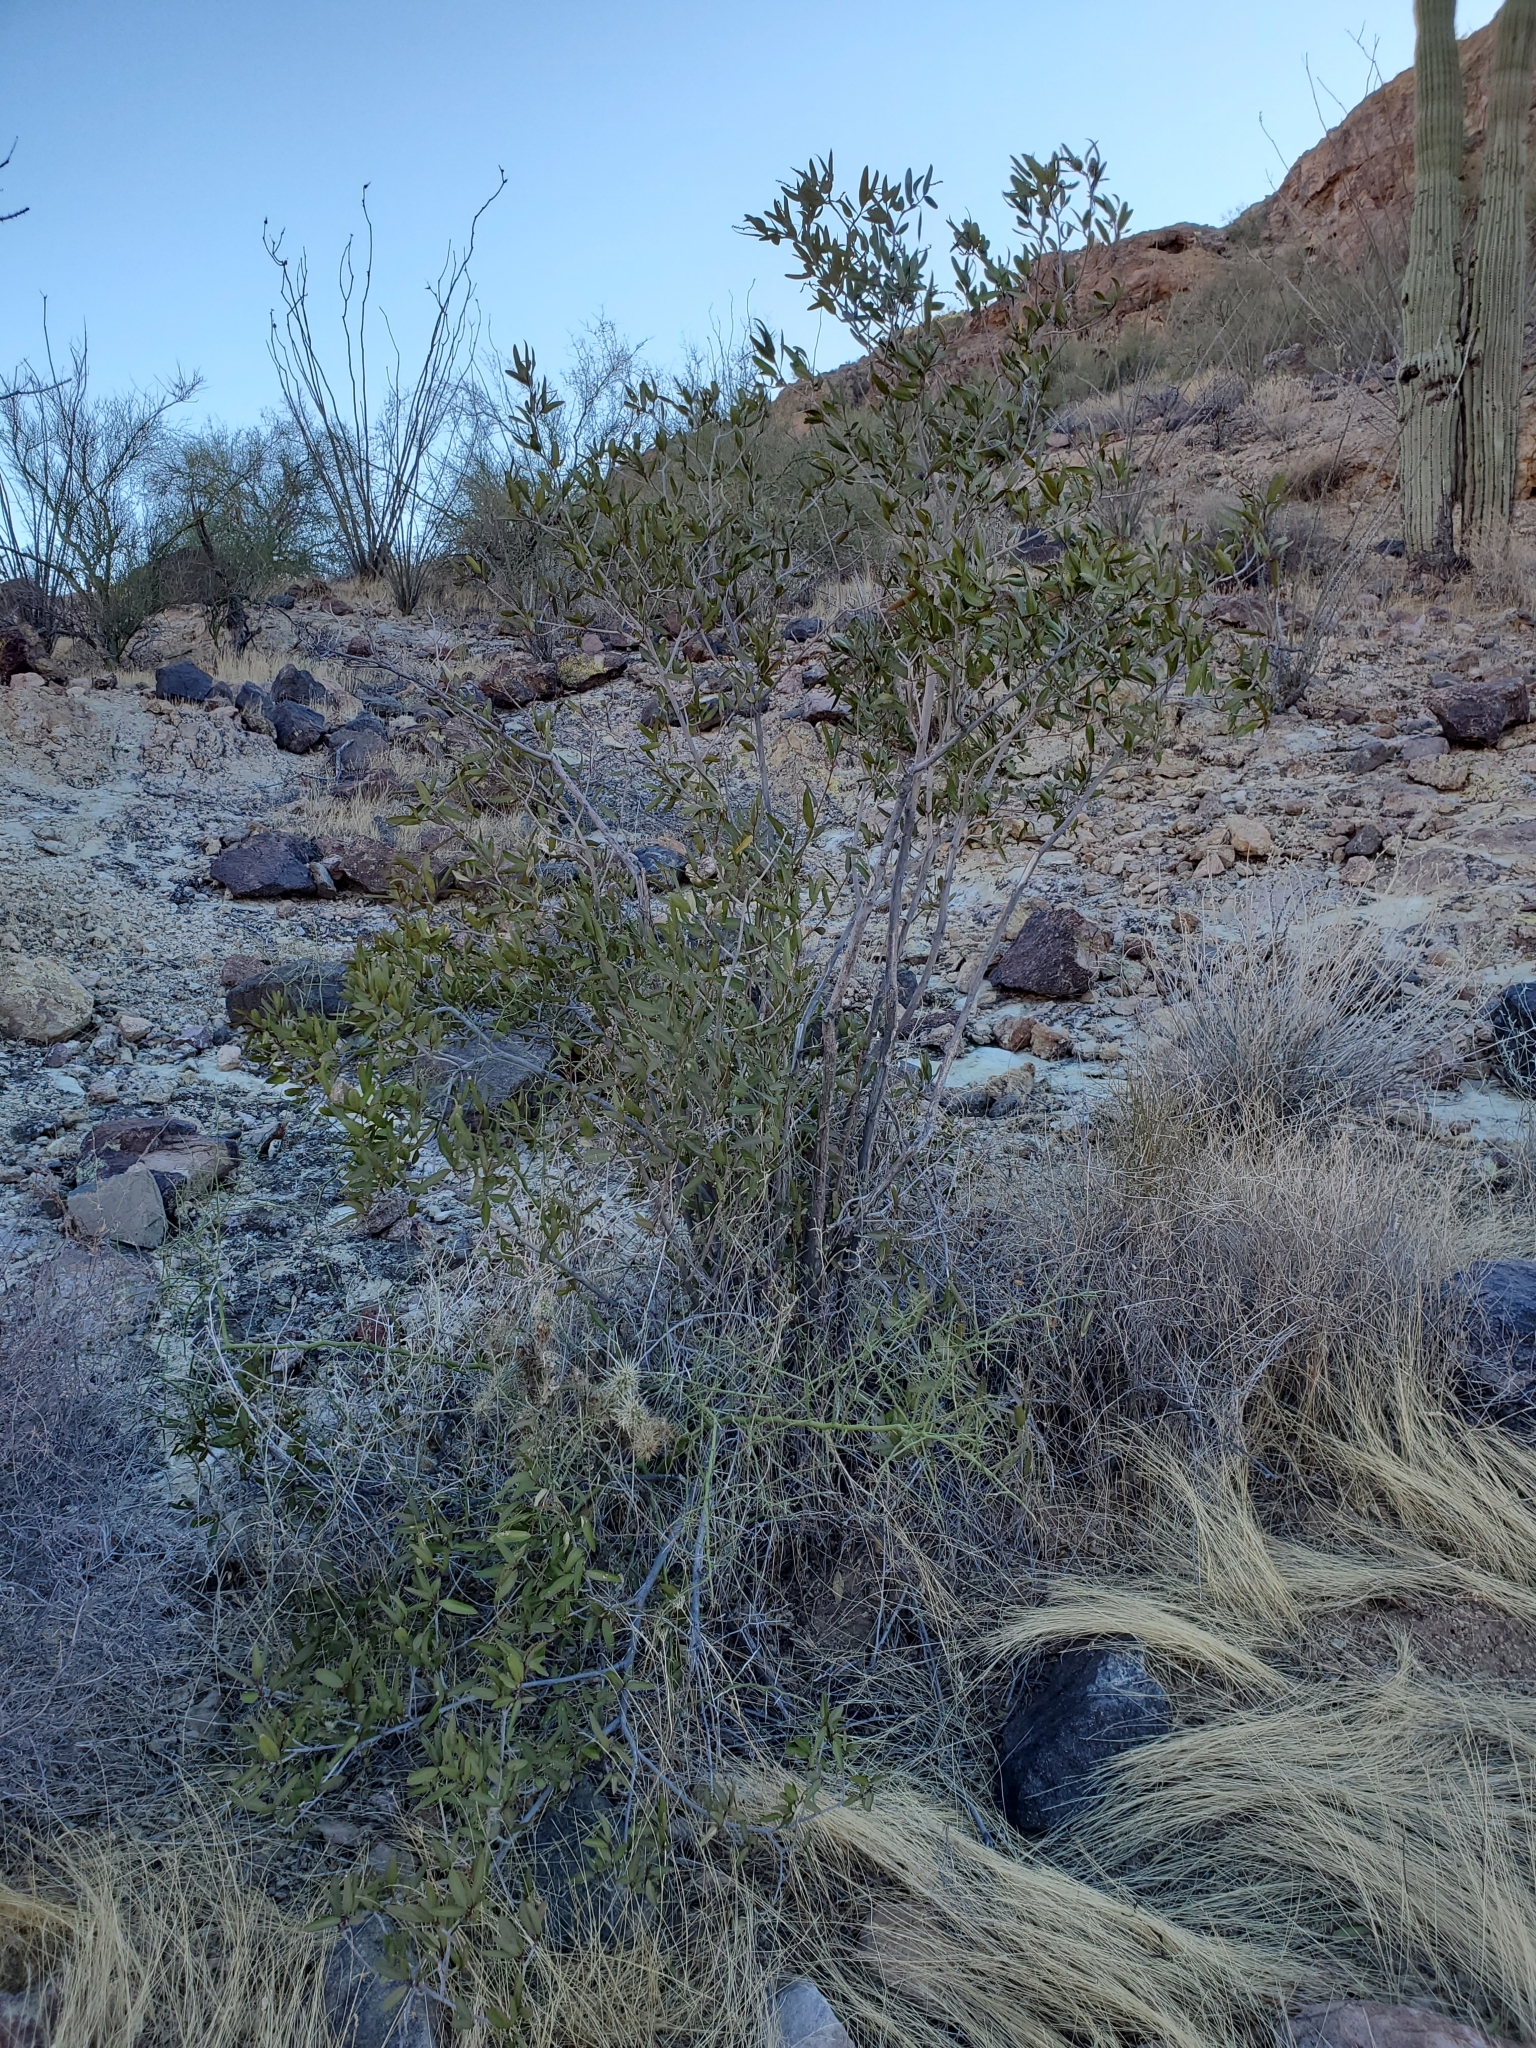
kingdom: Plantae
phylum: Tracheophyta
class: Magnoliopsida
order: Malpighiales
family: Euphorbiaceae
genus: Pleradenophora
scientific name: Pleradenophora bilocularis
